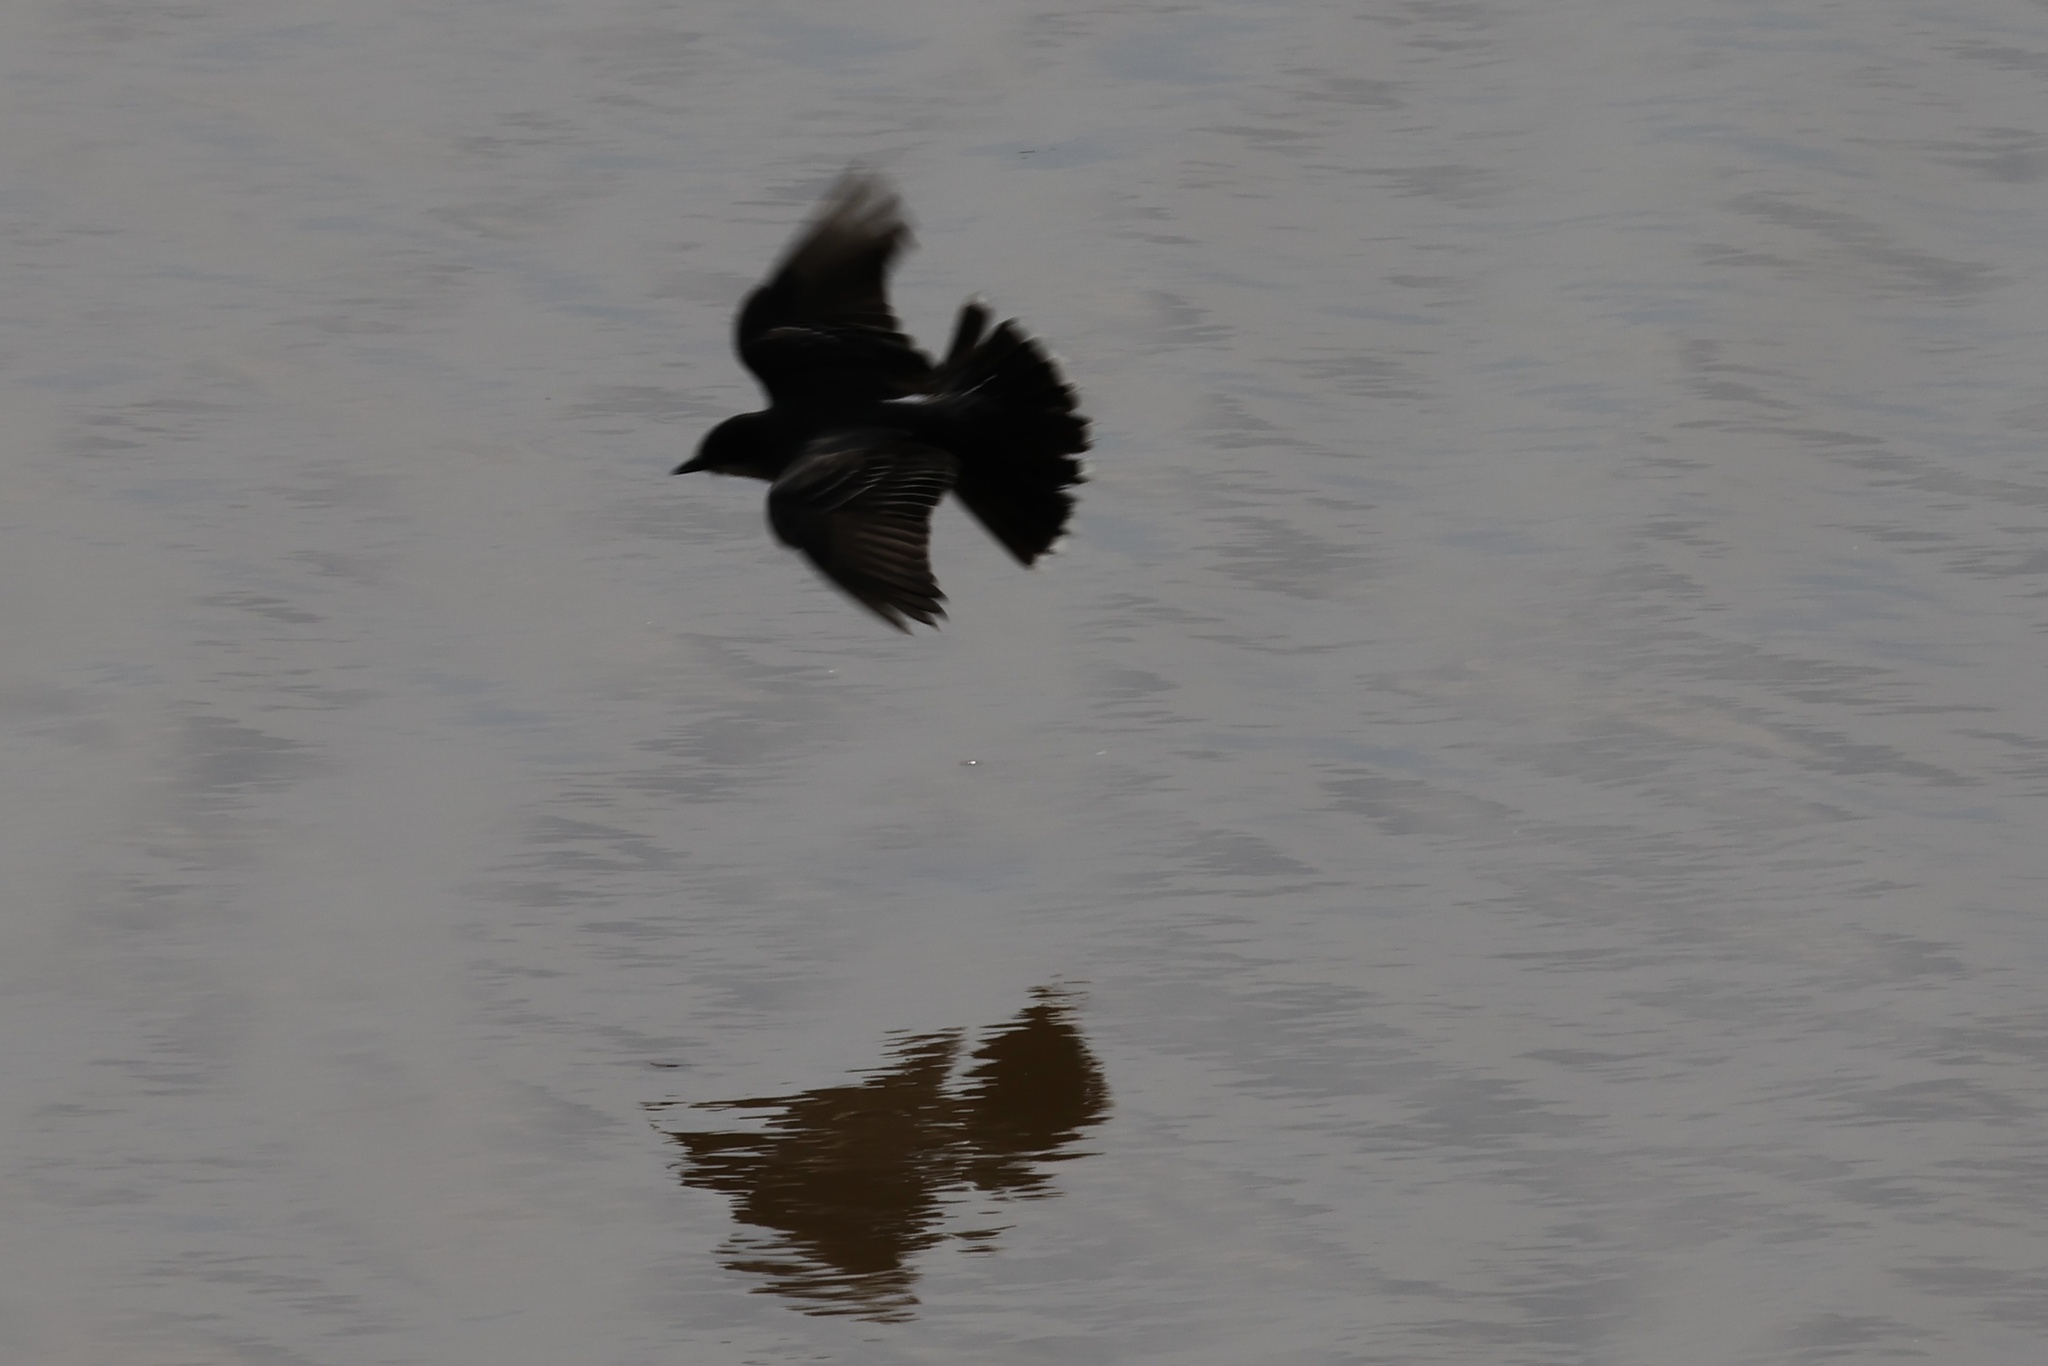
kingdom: Animalia
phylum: Chordata
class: Aves
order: Passeriformes
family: Tyrannidae
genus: Tyrannus
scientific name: Tyrannus tyrannus
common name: Eastern kingbird
